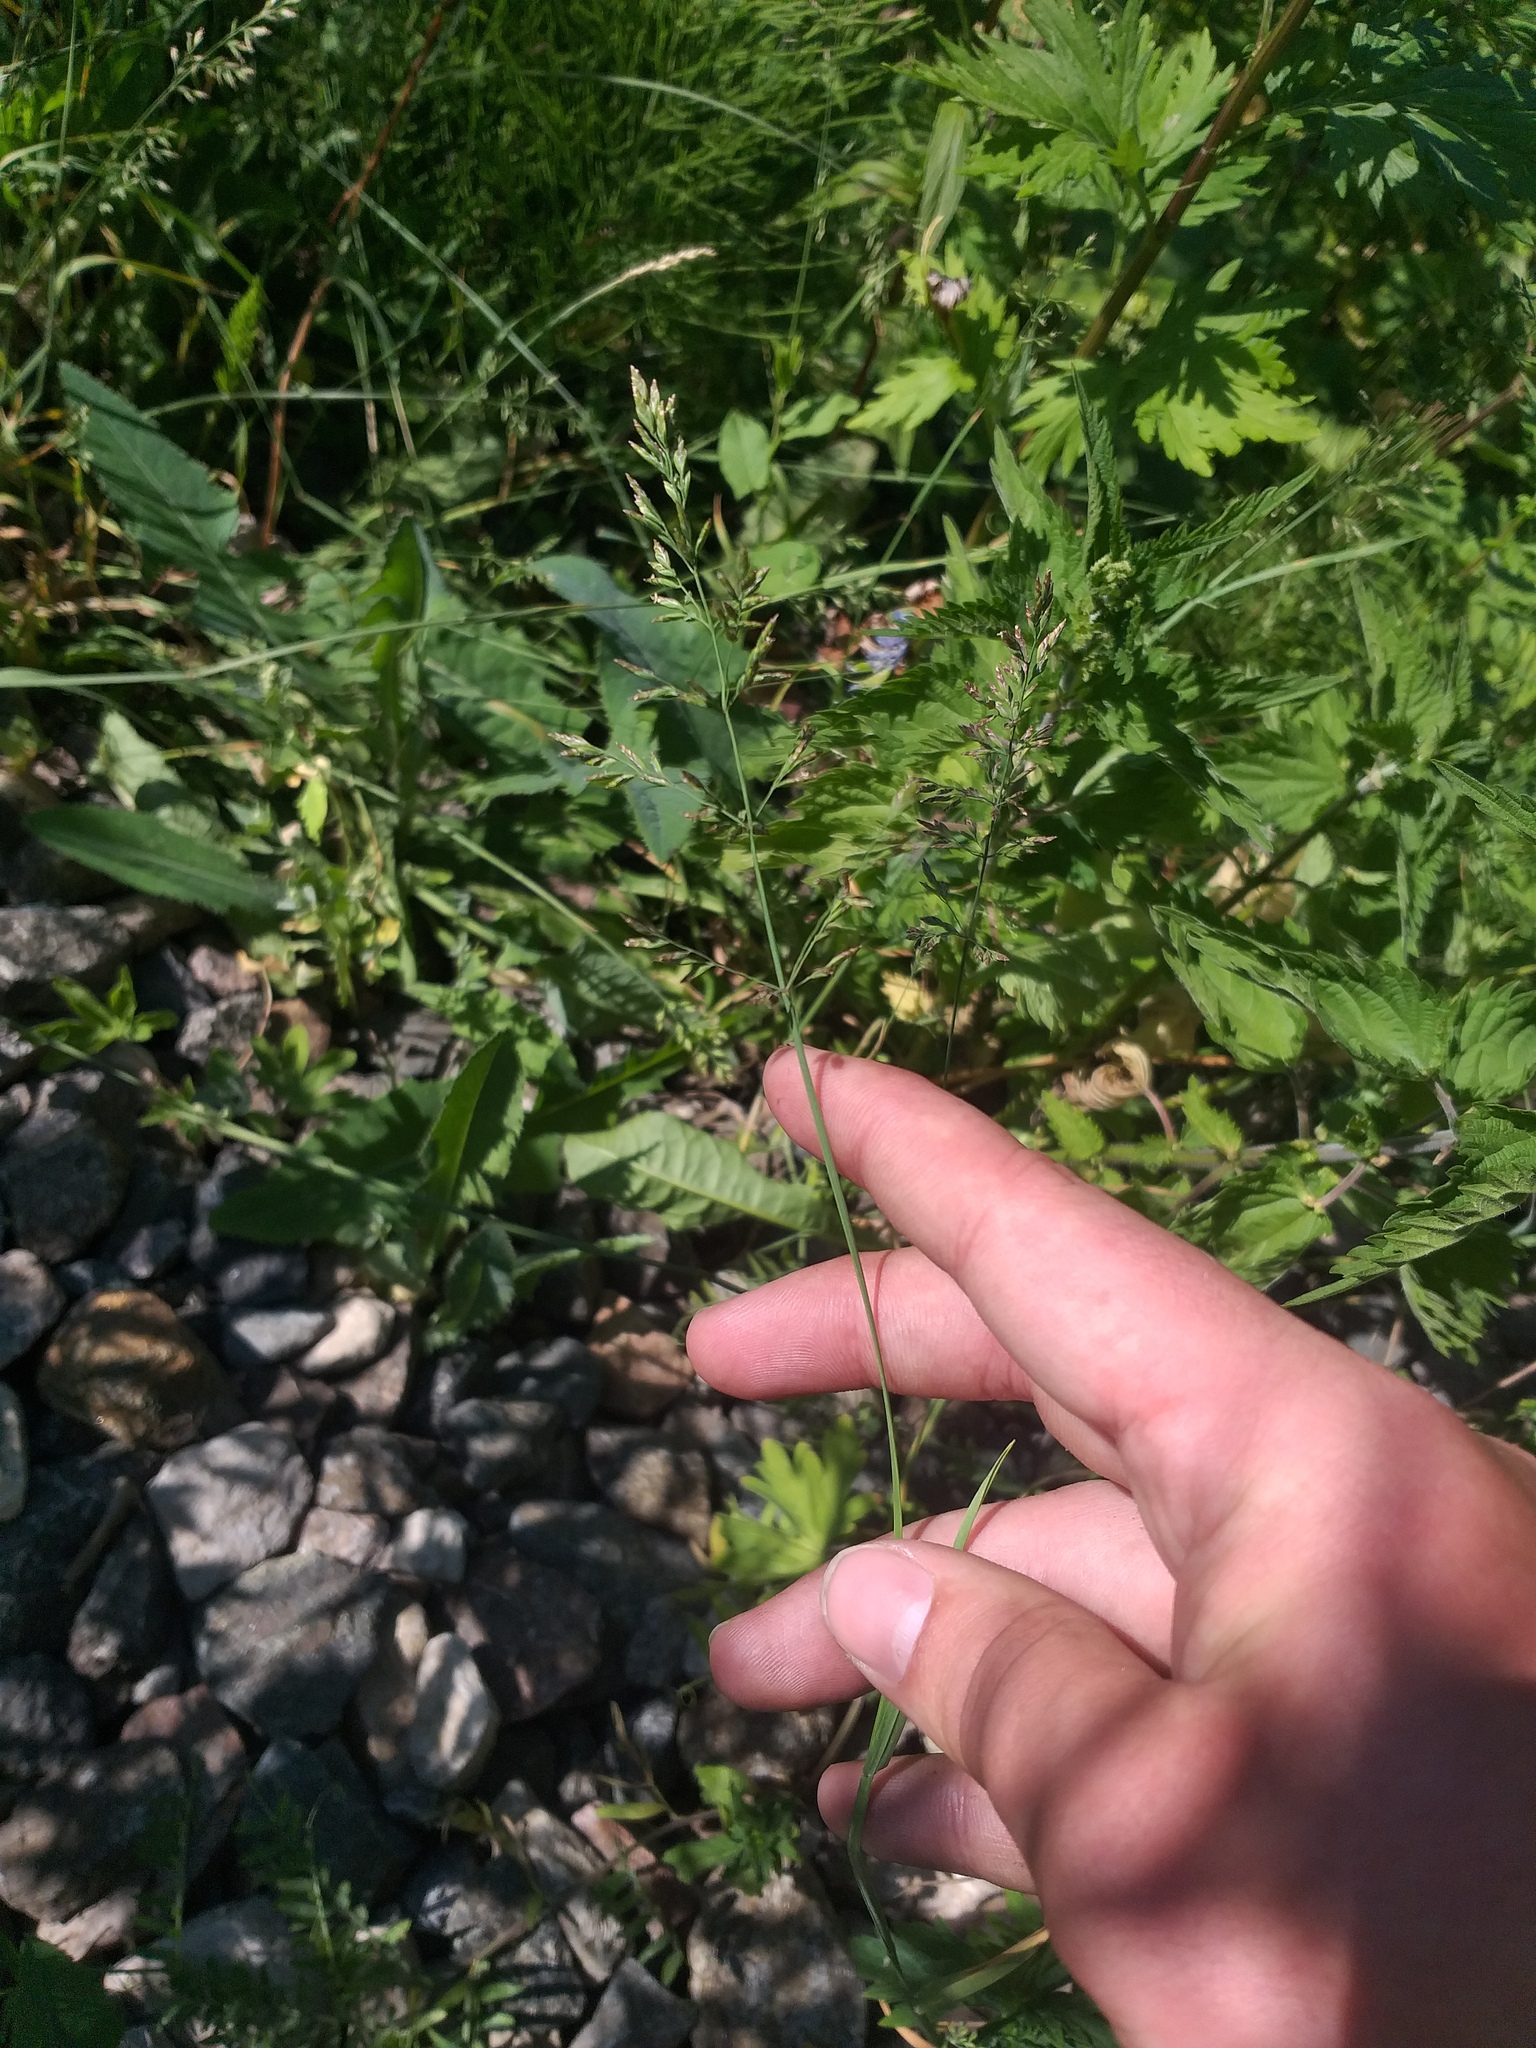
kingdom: Plantae
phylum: Tracheophyta
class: Liliopsida
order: Poales
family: Poaceae
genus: Poa
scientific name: Poa compressa
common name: Canada bluegrass
